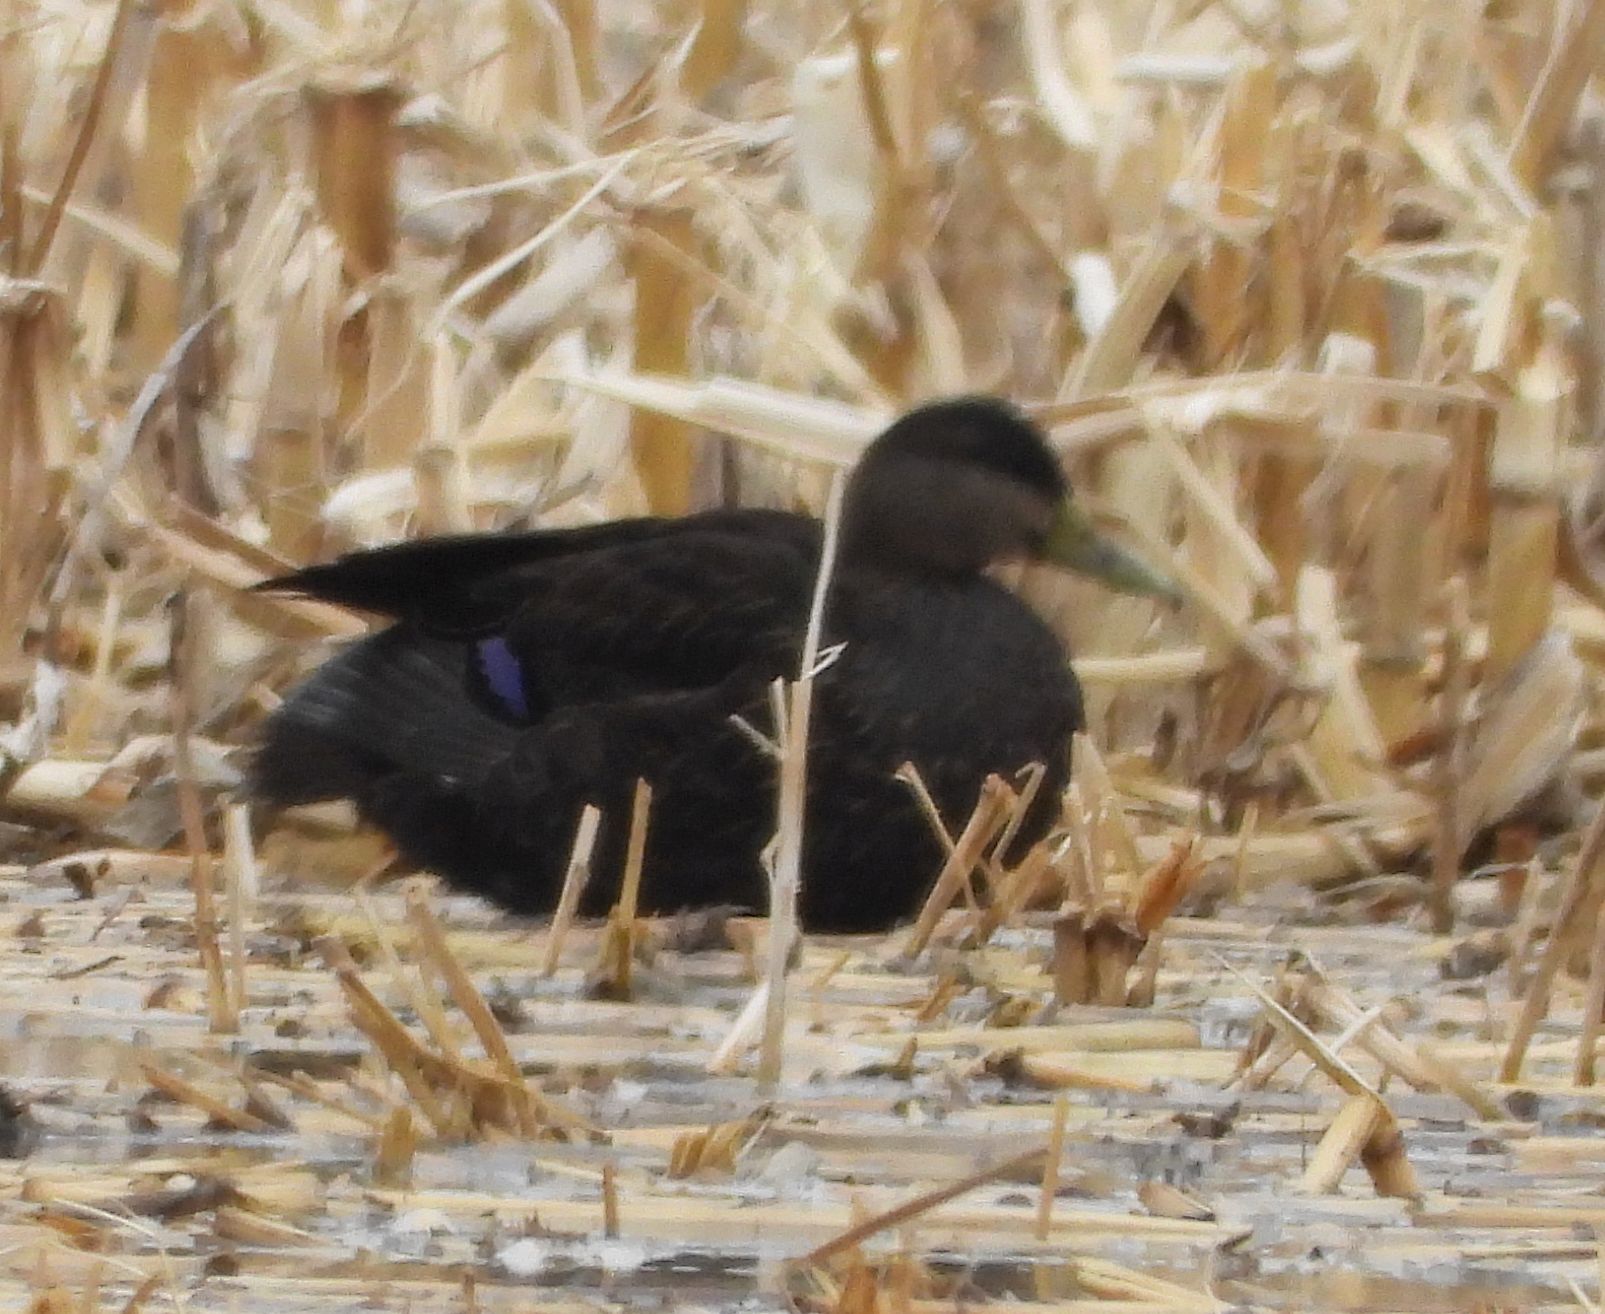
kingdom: Animalia
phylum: Chordata
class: Aves
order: Anseriformes
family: Anatidae
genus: Anas
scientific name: Anas rubripes
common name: American black duck
